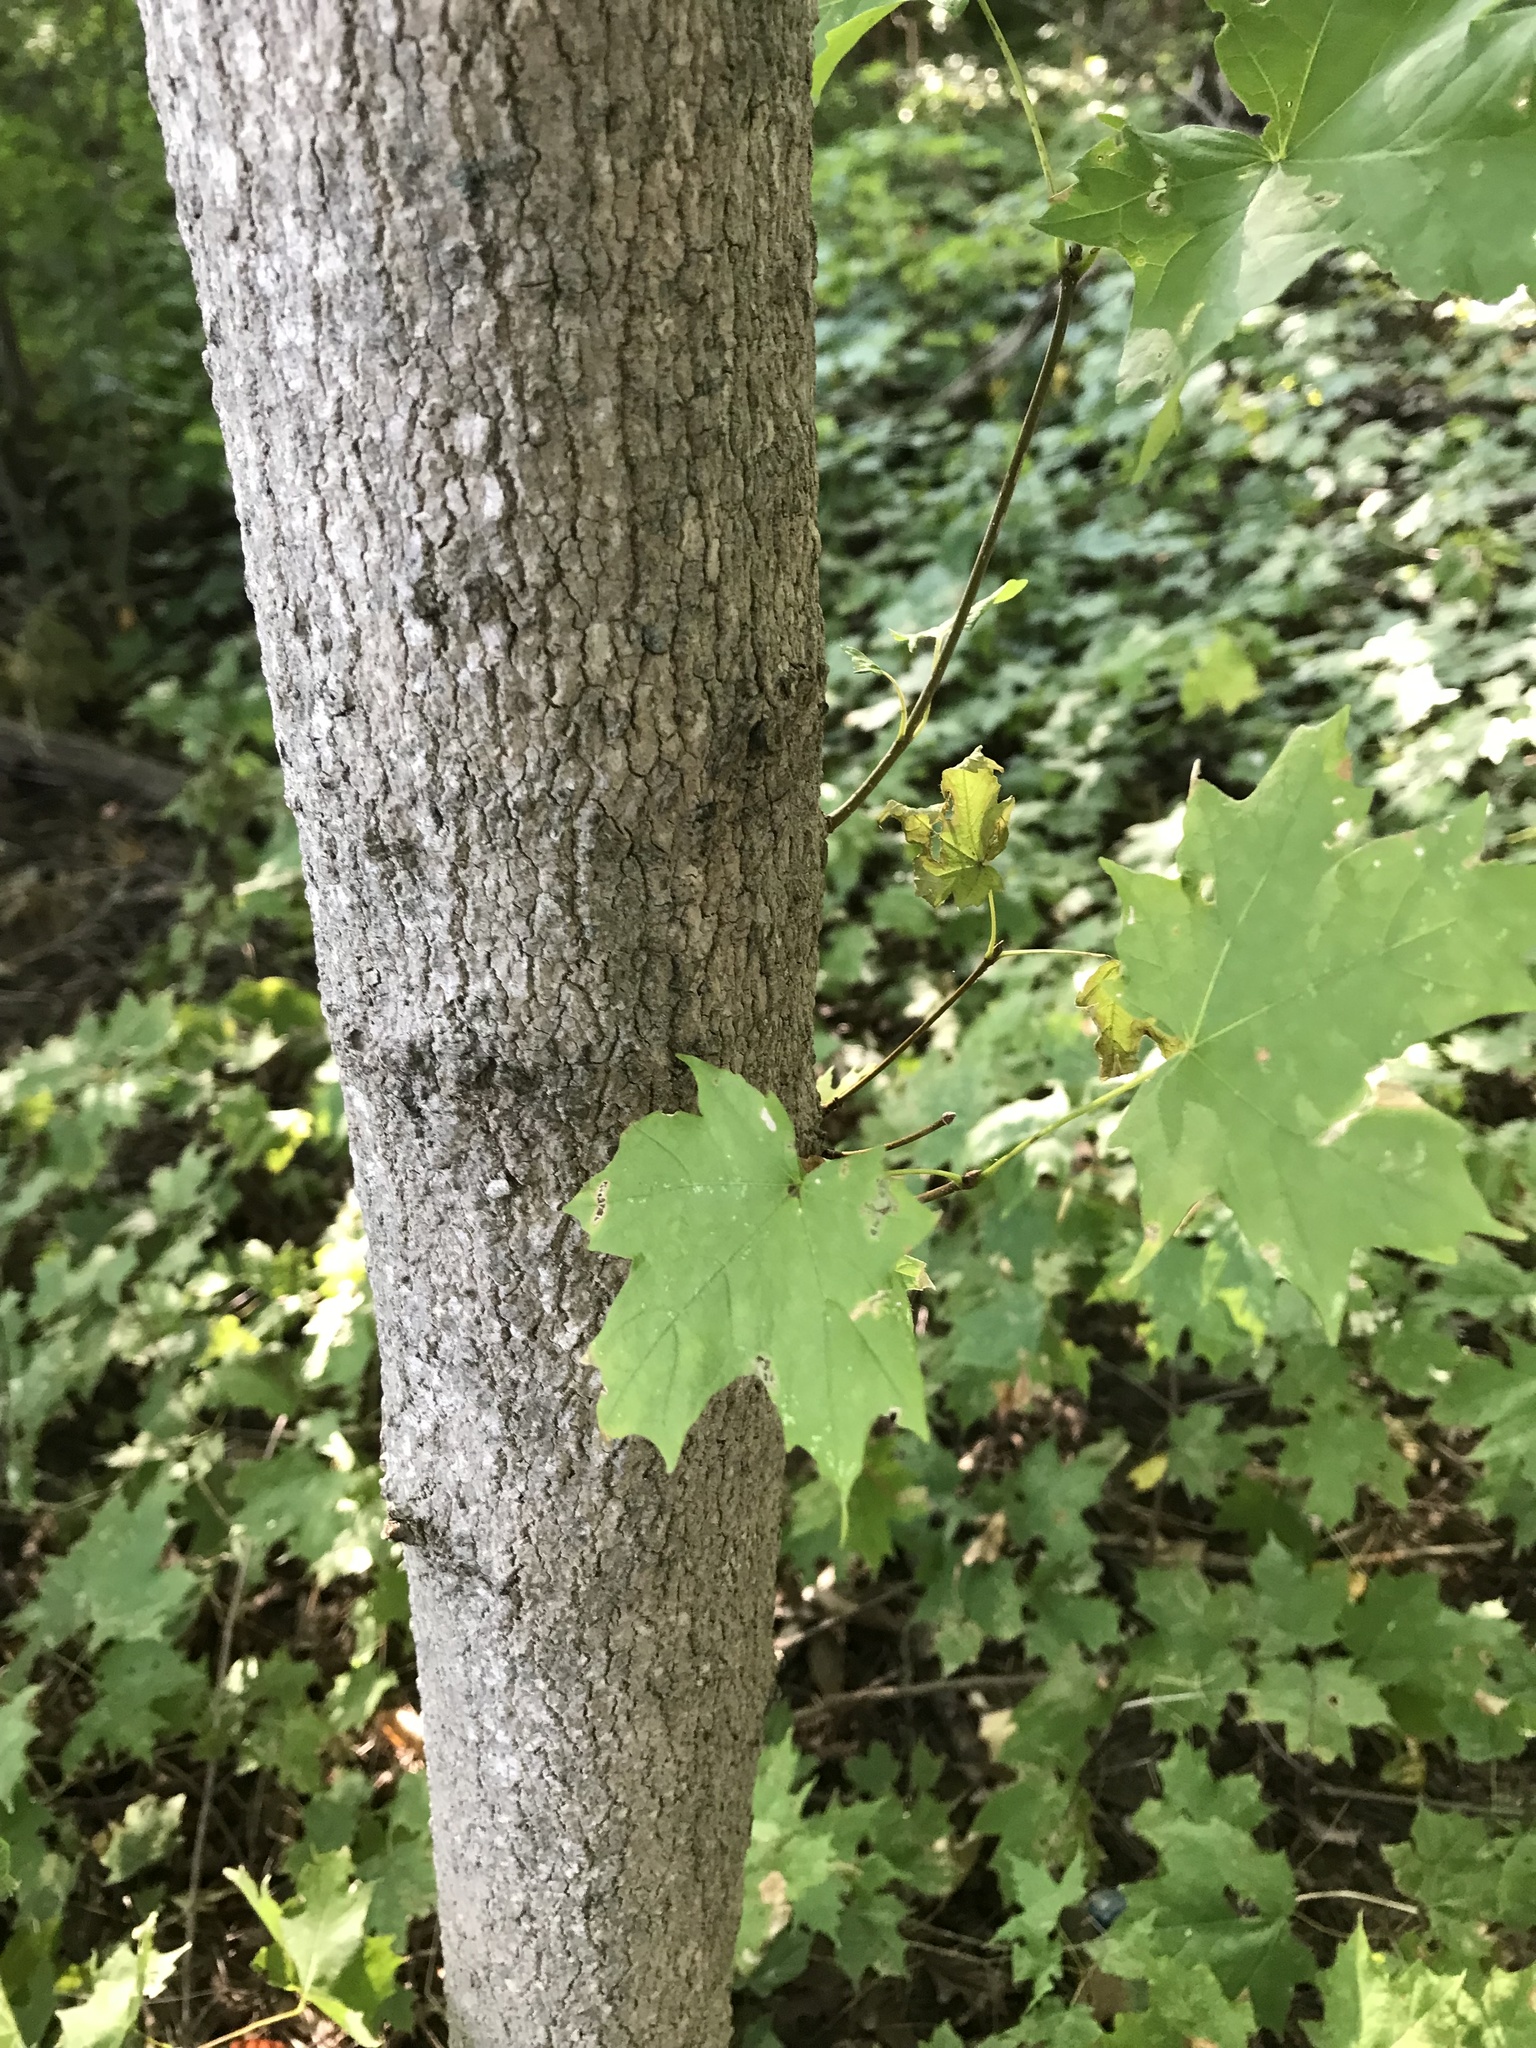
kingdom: Plantae
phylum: Tracheophyta
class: Magnoliopsida
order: Sapindales
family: Sapindaceae
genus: Acer
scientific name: Acer saccharum
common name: Sugar maple
